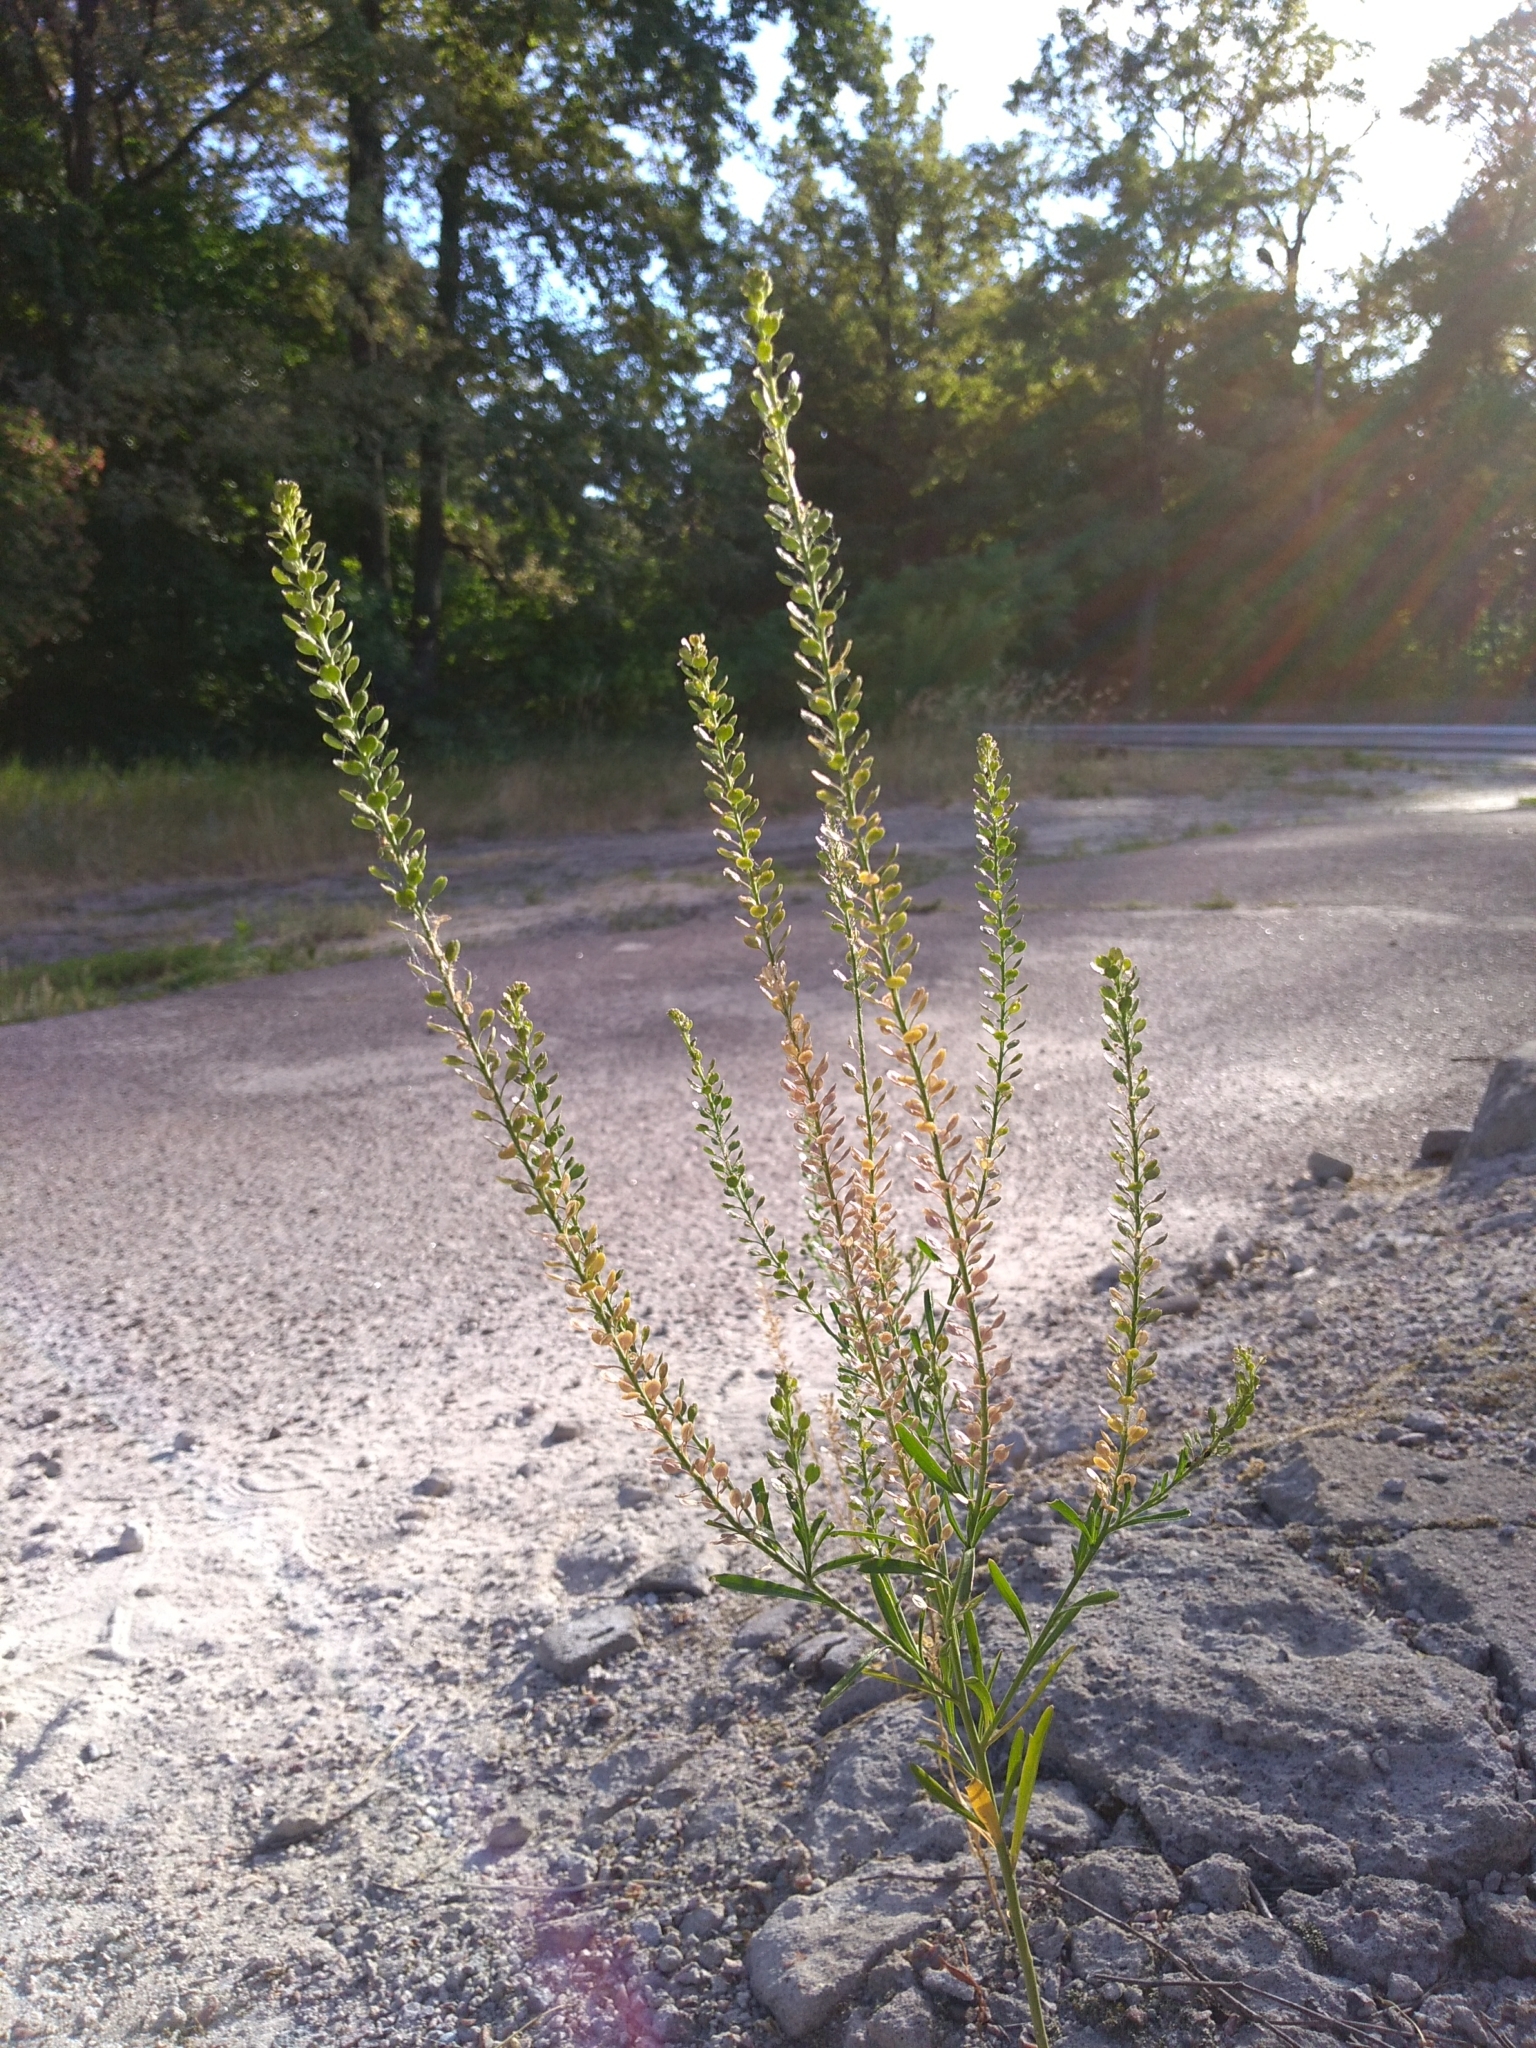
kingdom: Plantae
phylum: Tracheophyta
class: Magnoliopsida
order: Brassicales
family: Brassicaceae
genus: Lepidium
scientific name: Lepidium densiflorum
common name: Miner's pepperwort
